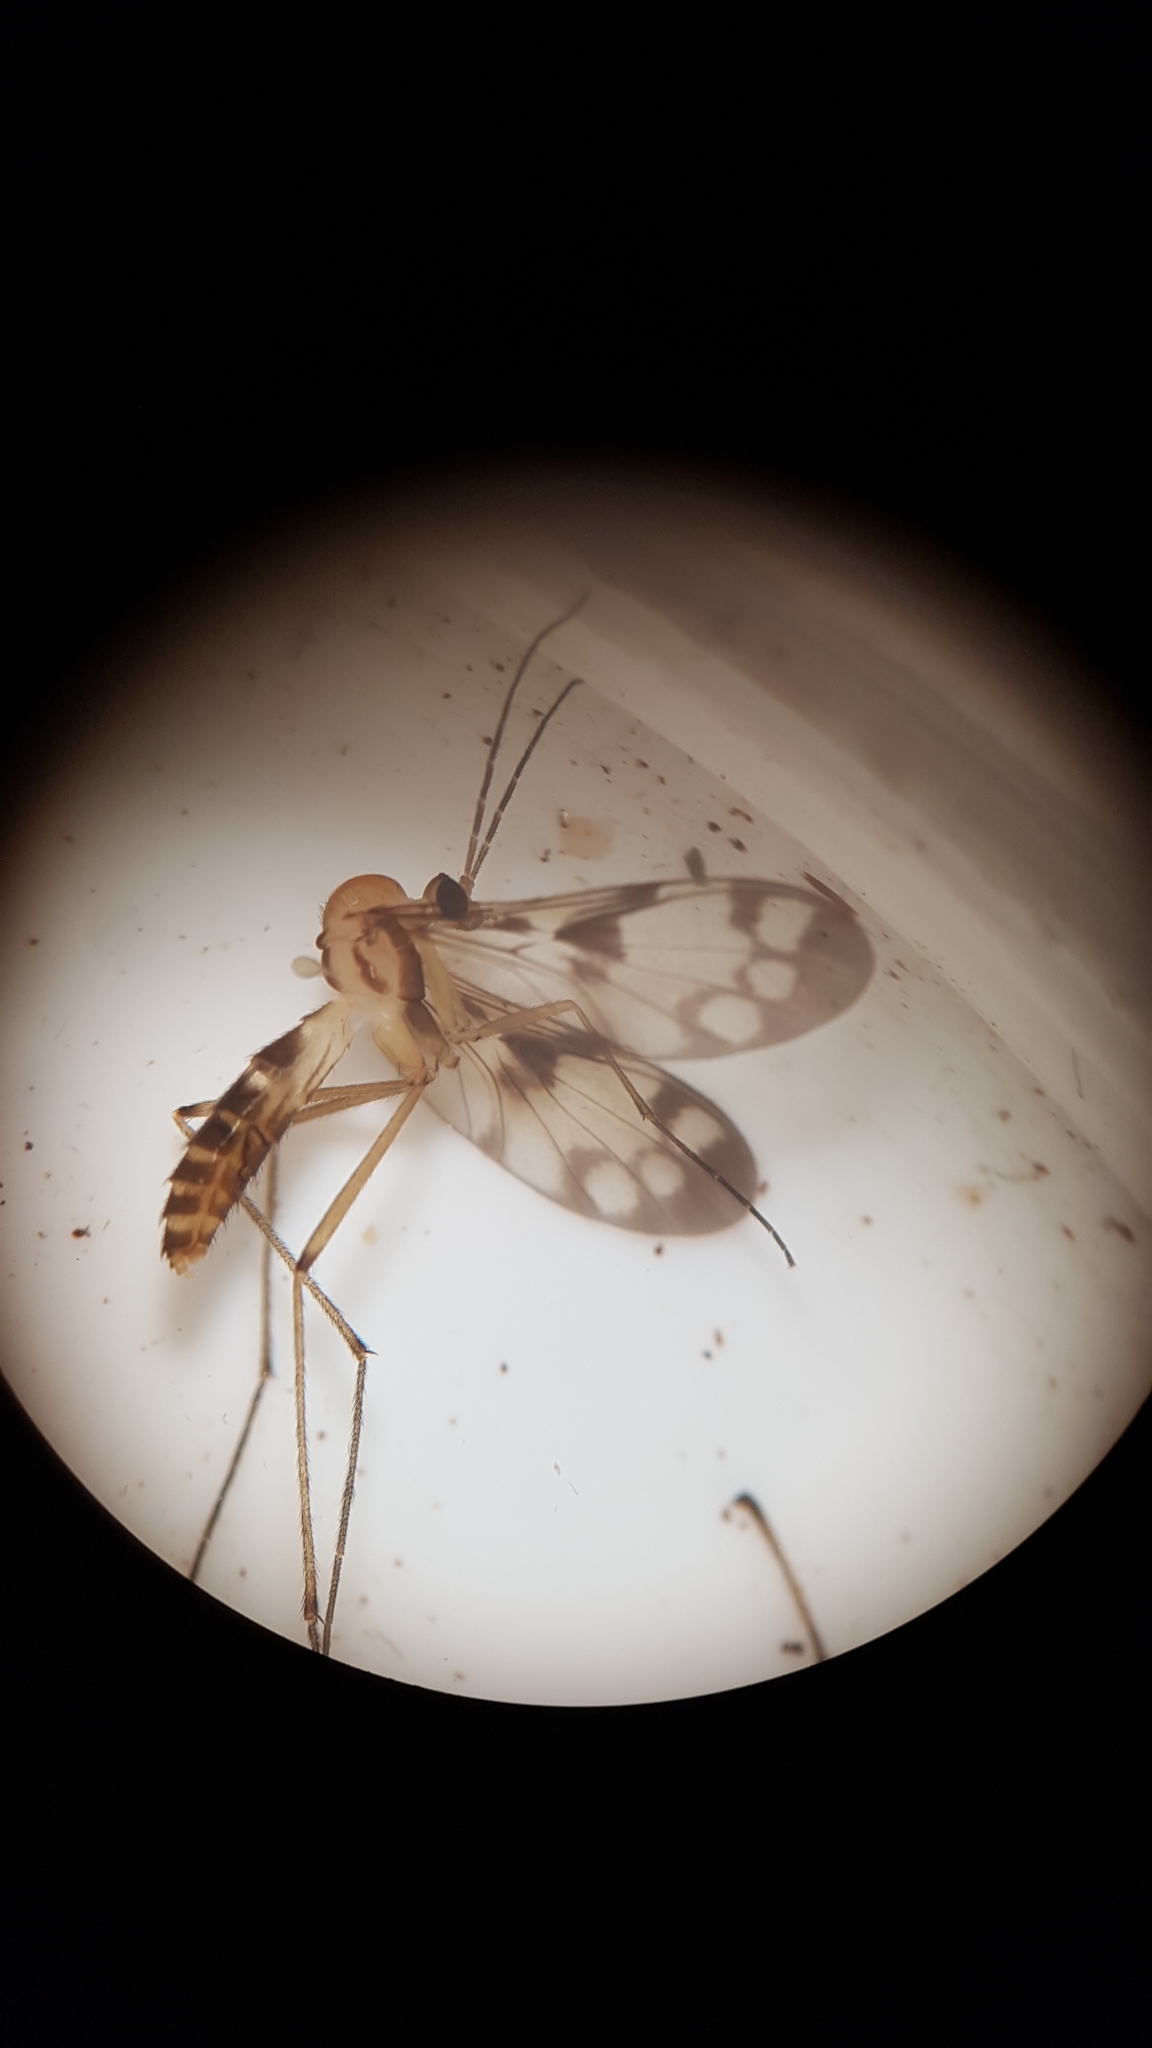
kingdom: Animalia
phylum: Arthropoda
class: Insecta
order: Diptera
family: Keroplatidae
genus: Chiasmoneura
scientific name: Chiasmoneura fenestrata
